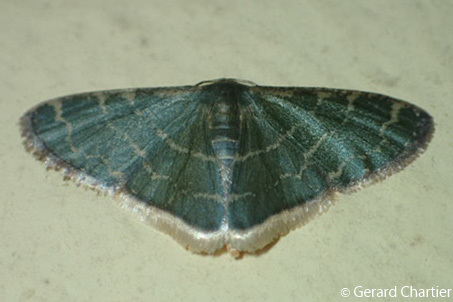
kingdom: Animalia
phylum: Arthropoda
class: Insecta
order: Lepidoptera
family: Geometridae
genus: Lophophleps
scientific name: Lophophleps triangularis
